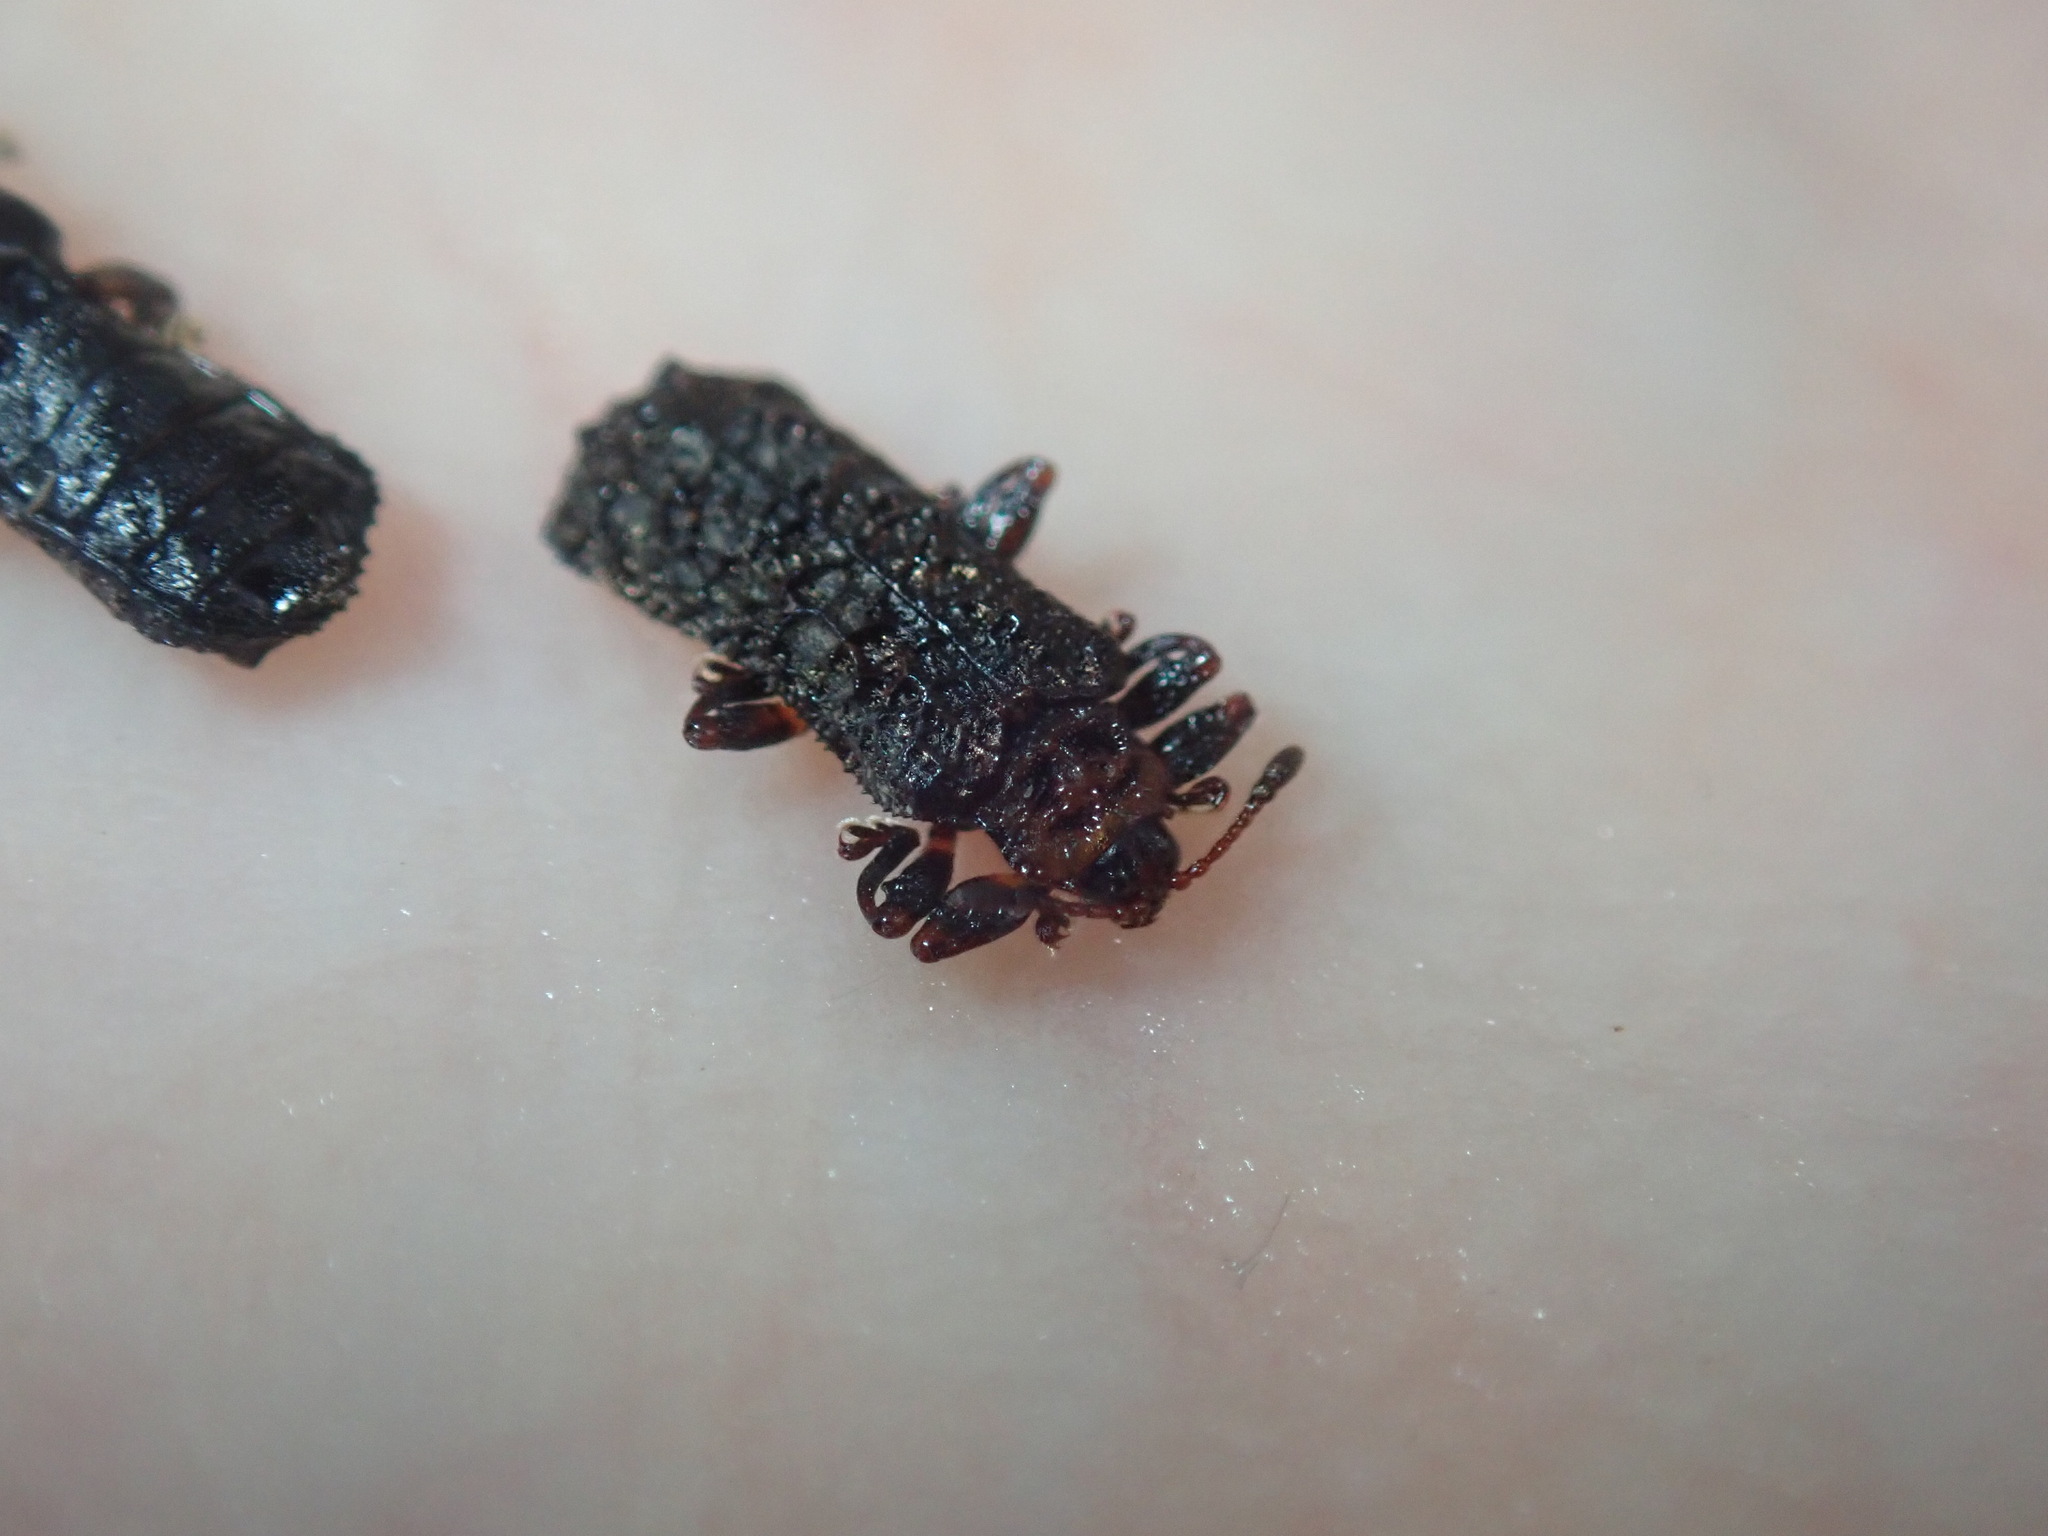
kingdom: Animalia
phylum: Arthropoda
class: Insecta
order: Coleoptera
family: Chrysomelidae
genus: Octotoma
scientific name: Octotoma scabripennis
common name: Beetle
